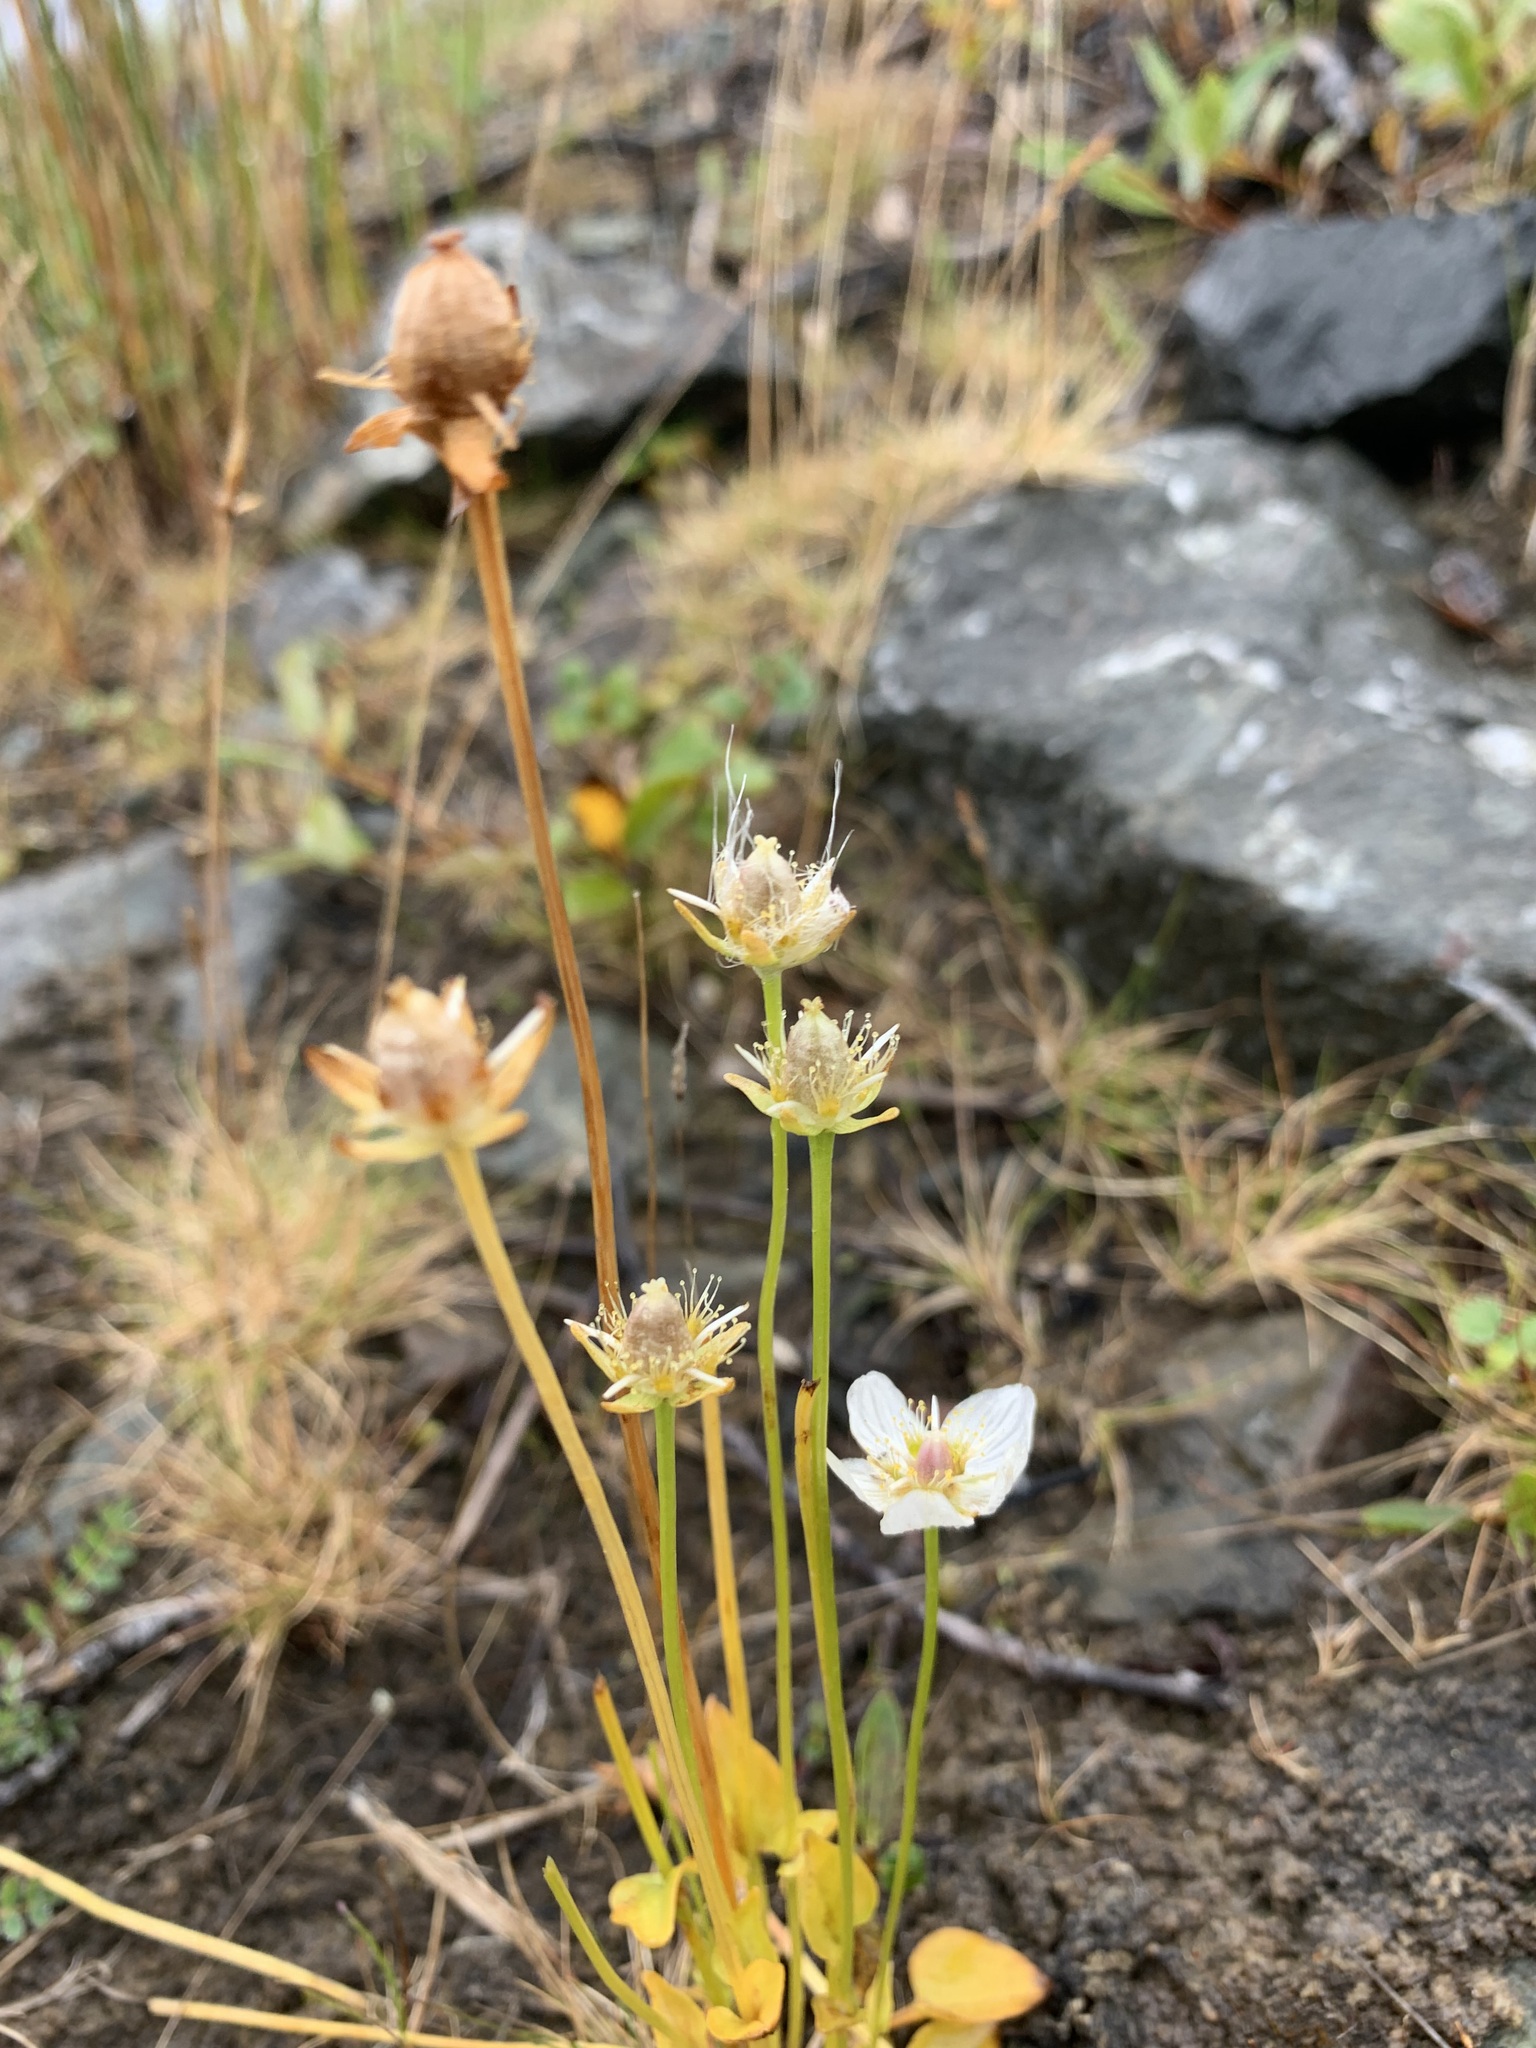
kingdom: Plantae
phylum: Tracheophyta
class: Magnoliopsida
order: Celastrales
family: Parnassiaceae
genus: Parnassia
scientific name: Parnassia palustris
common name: Grass-of-parnassus
